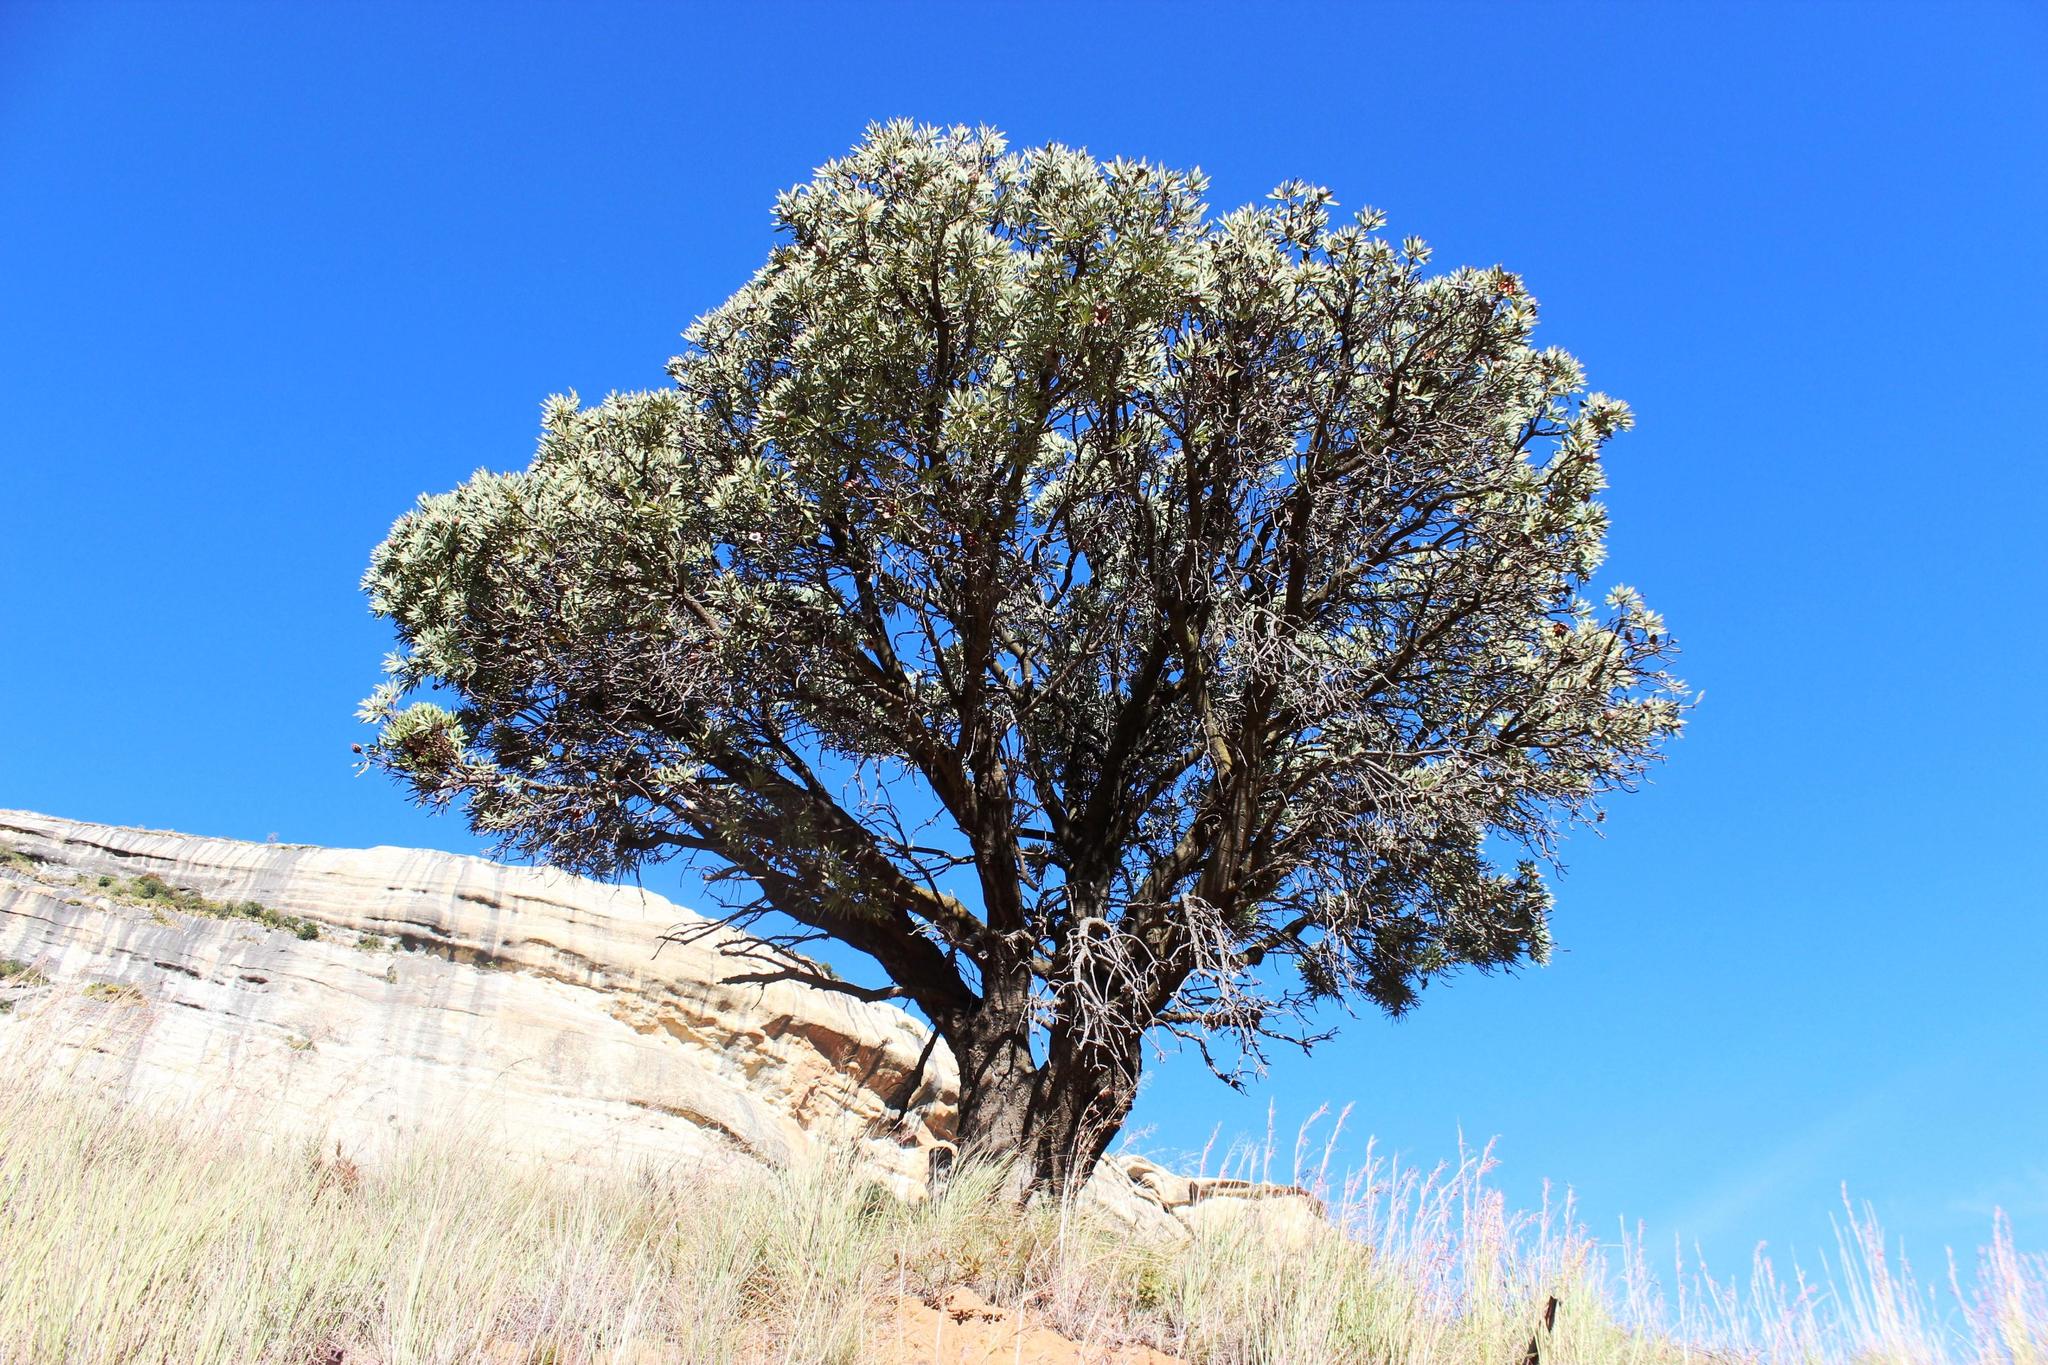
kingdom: Plantae
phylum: Tracheophyta
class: Magnoliopsida
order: Proteales
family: Proteaceae
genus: Protea
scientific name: Protea caffra
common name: Common sugarbush
